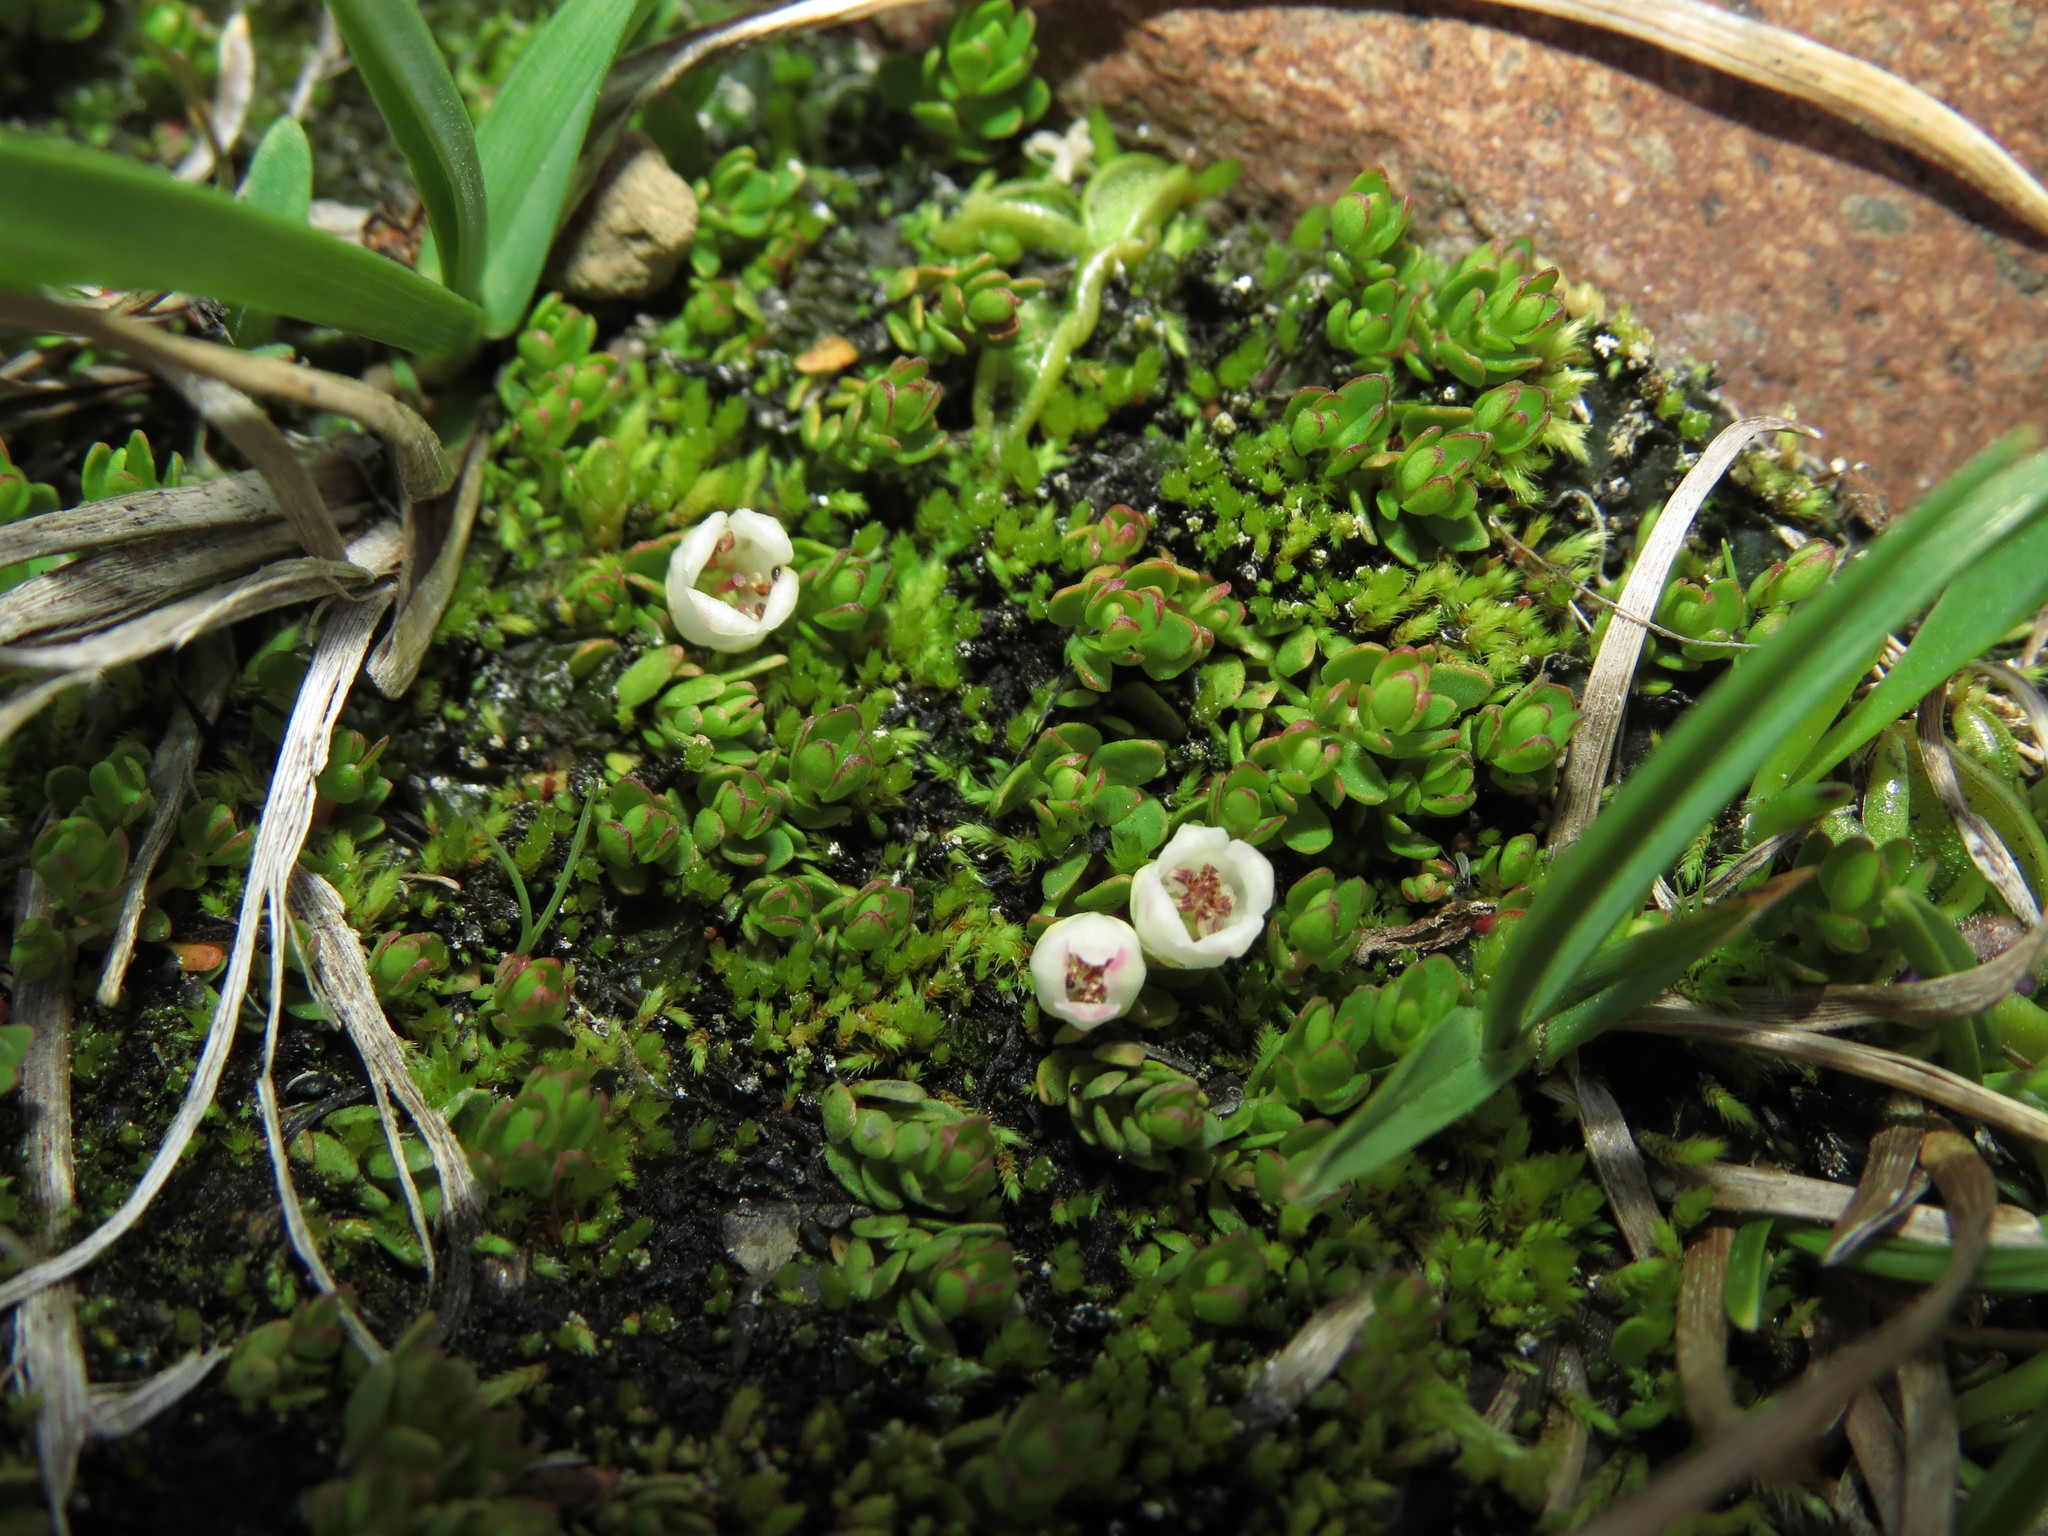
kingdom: Plantae
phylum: Tracheophyta
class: Magnoliopsida
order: Ericales
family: Ericaceae
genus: Gaultheria
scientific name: Gaultheria caespitosa
